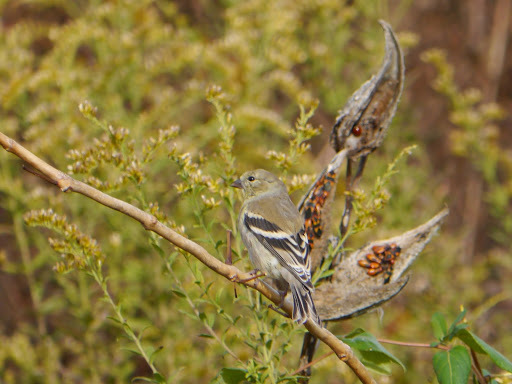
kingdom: Animalia
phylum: Chordata
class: Aves
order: Passeriformes
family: Fringillidae
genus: Spinus
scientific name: Spinus tristis
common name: American goldfinch
